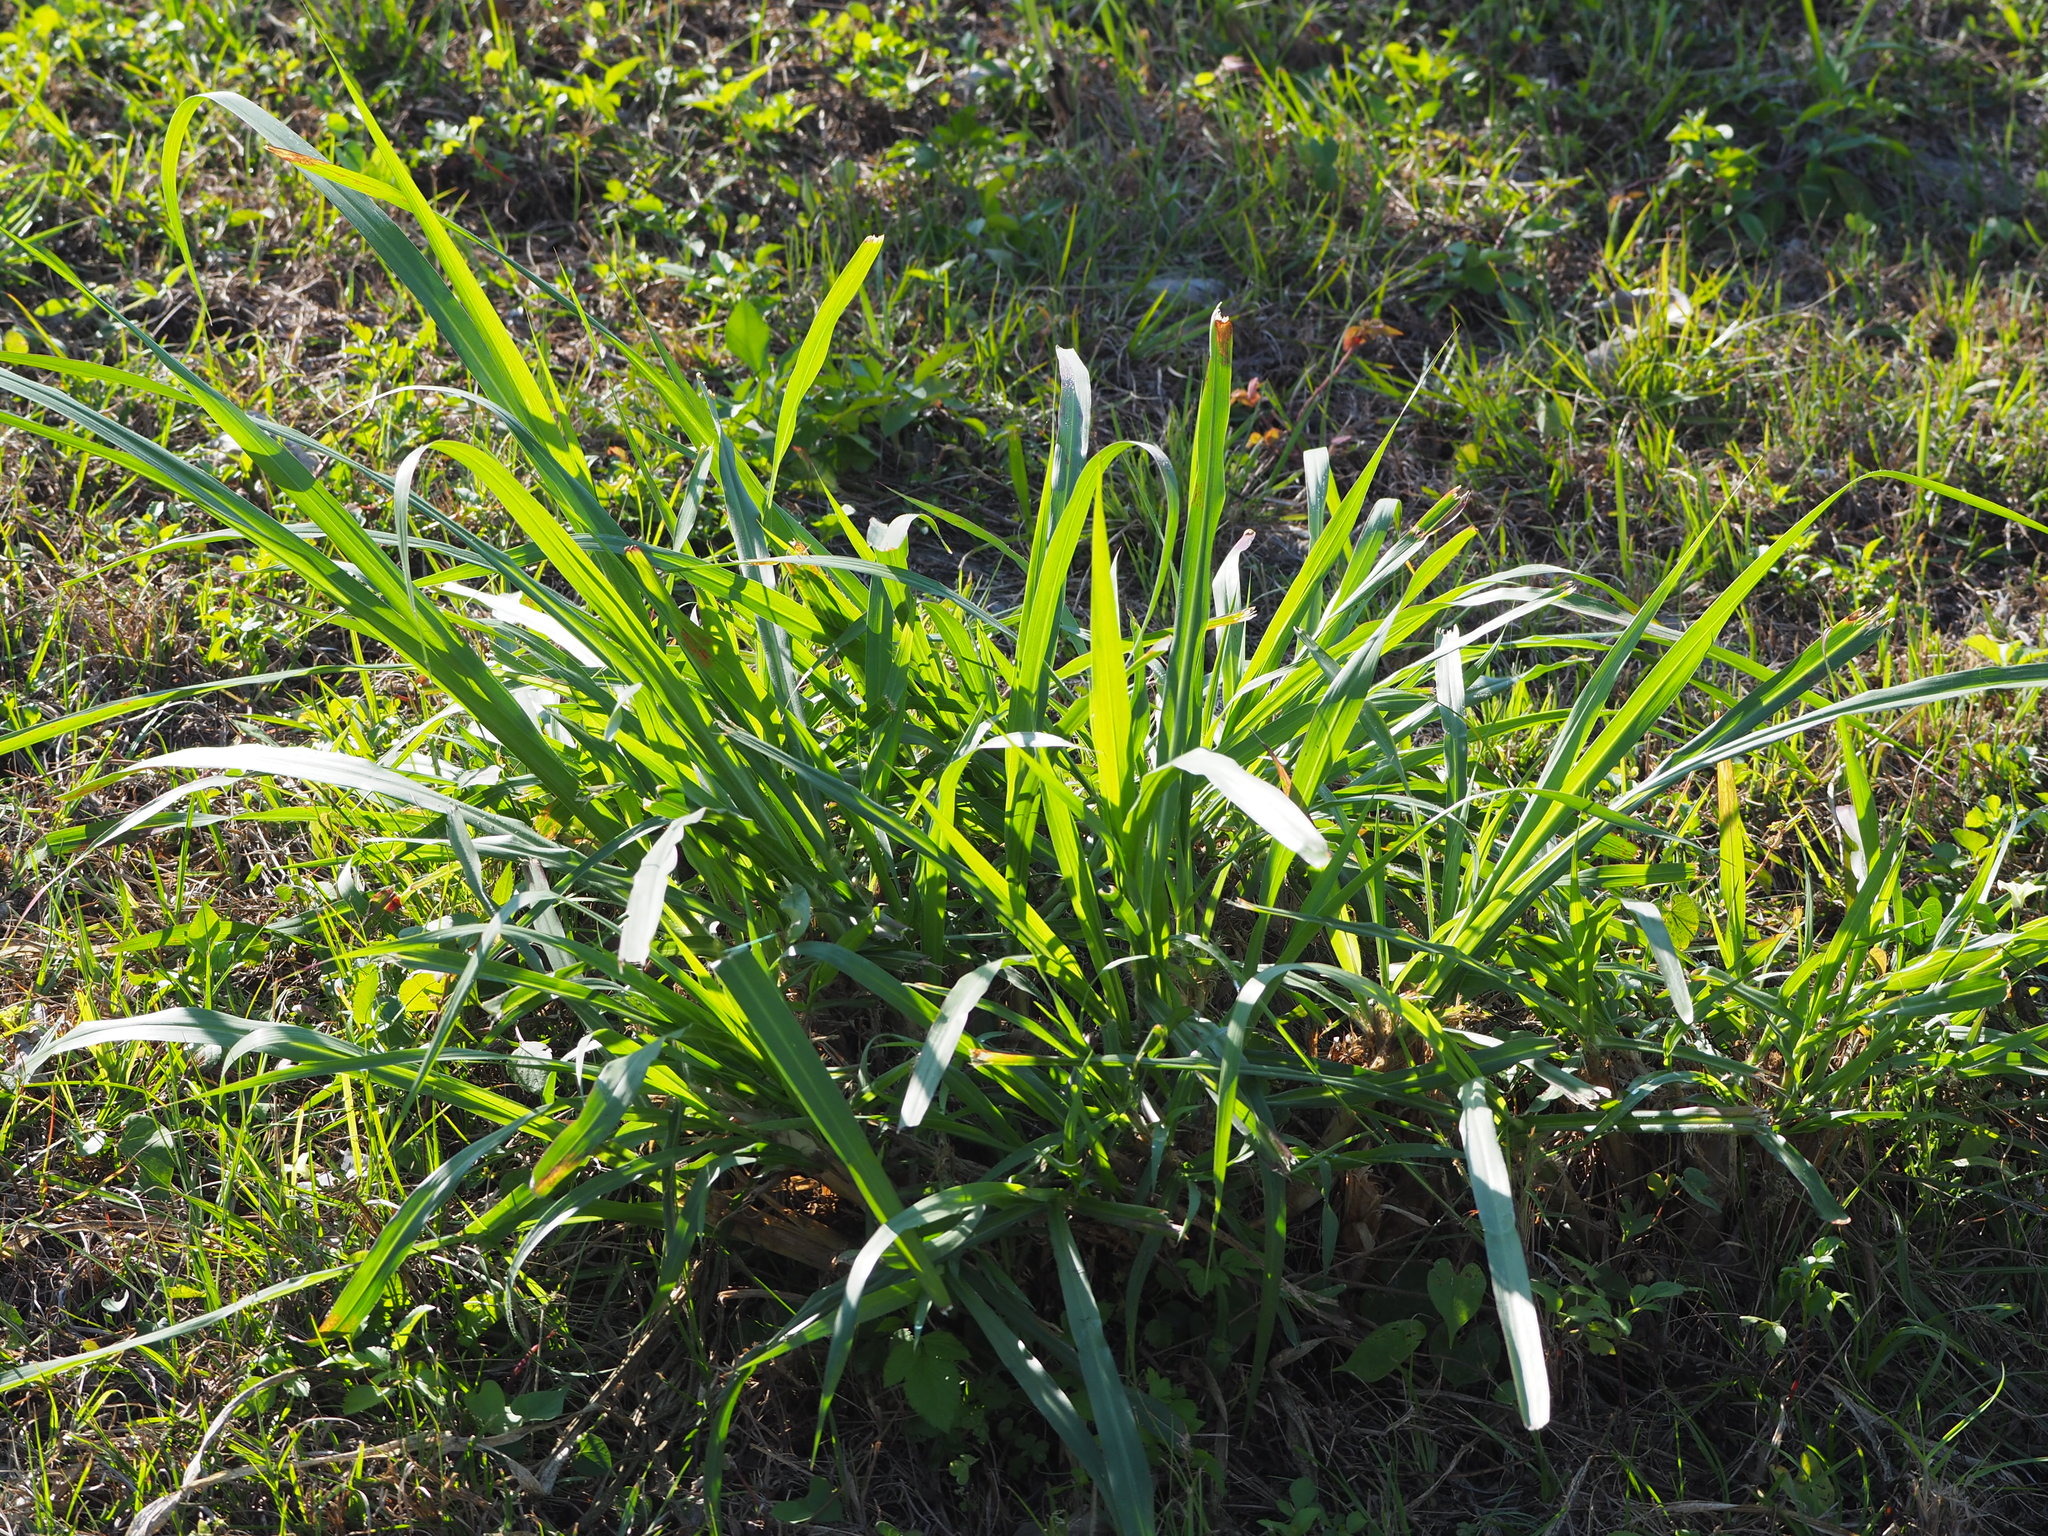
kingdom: Plantae
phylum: Tracheophyta
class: Liliopsida
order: Poales
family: Poaceae
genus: Megathyrsus
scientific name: Megathyrsus maximus
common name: Guineagrass
